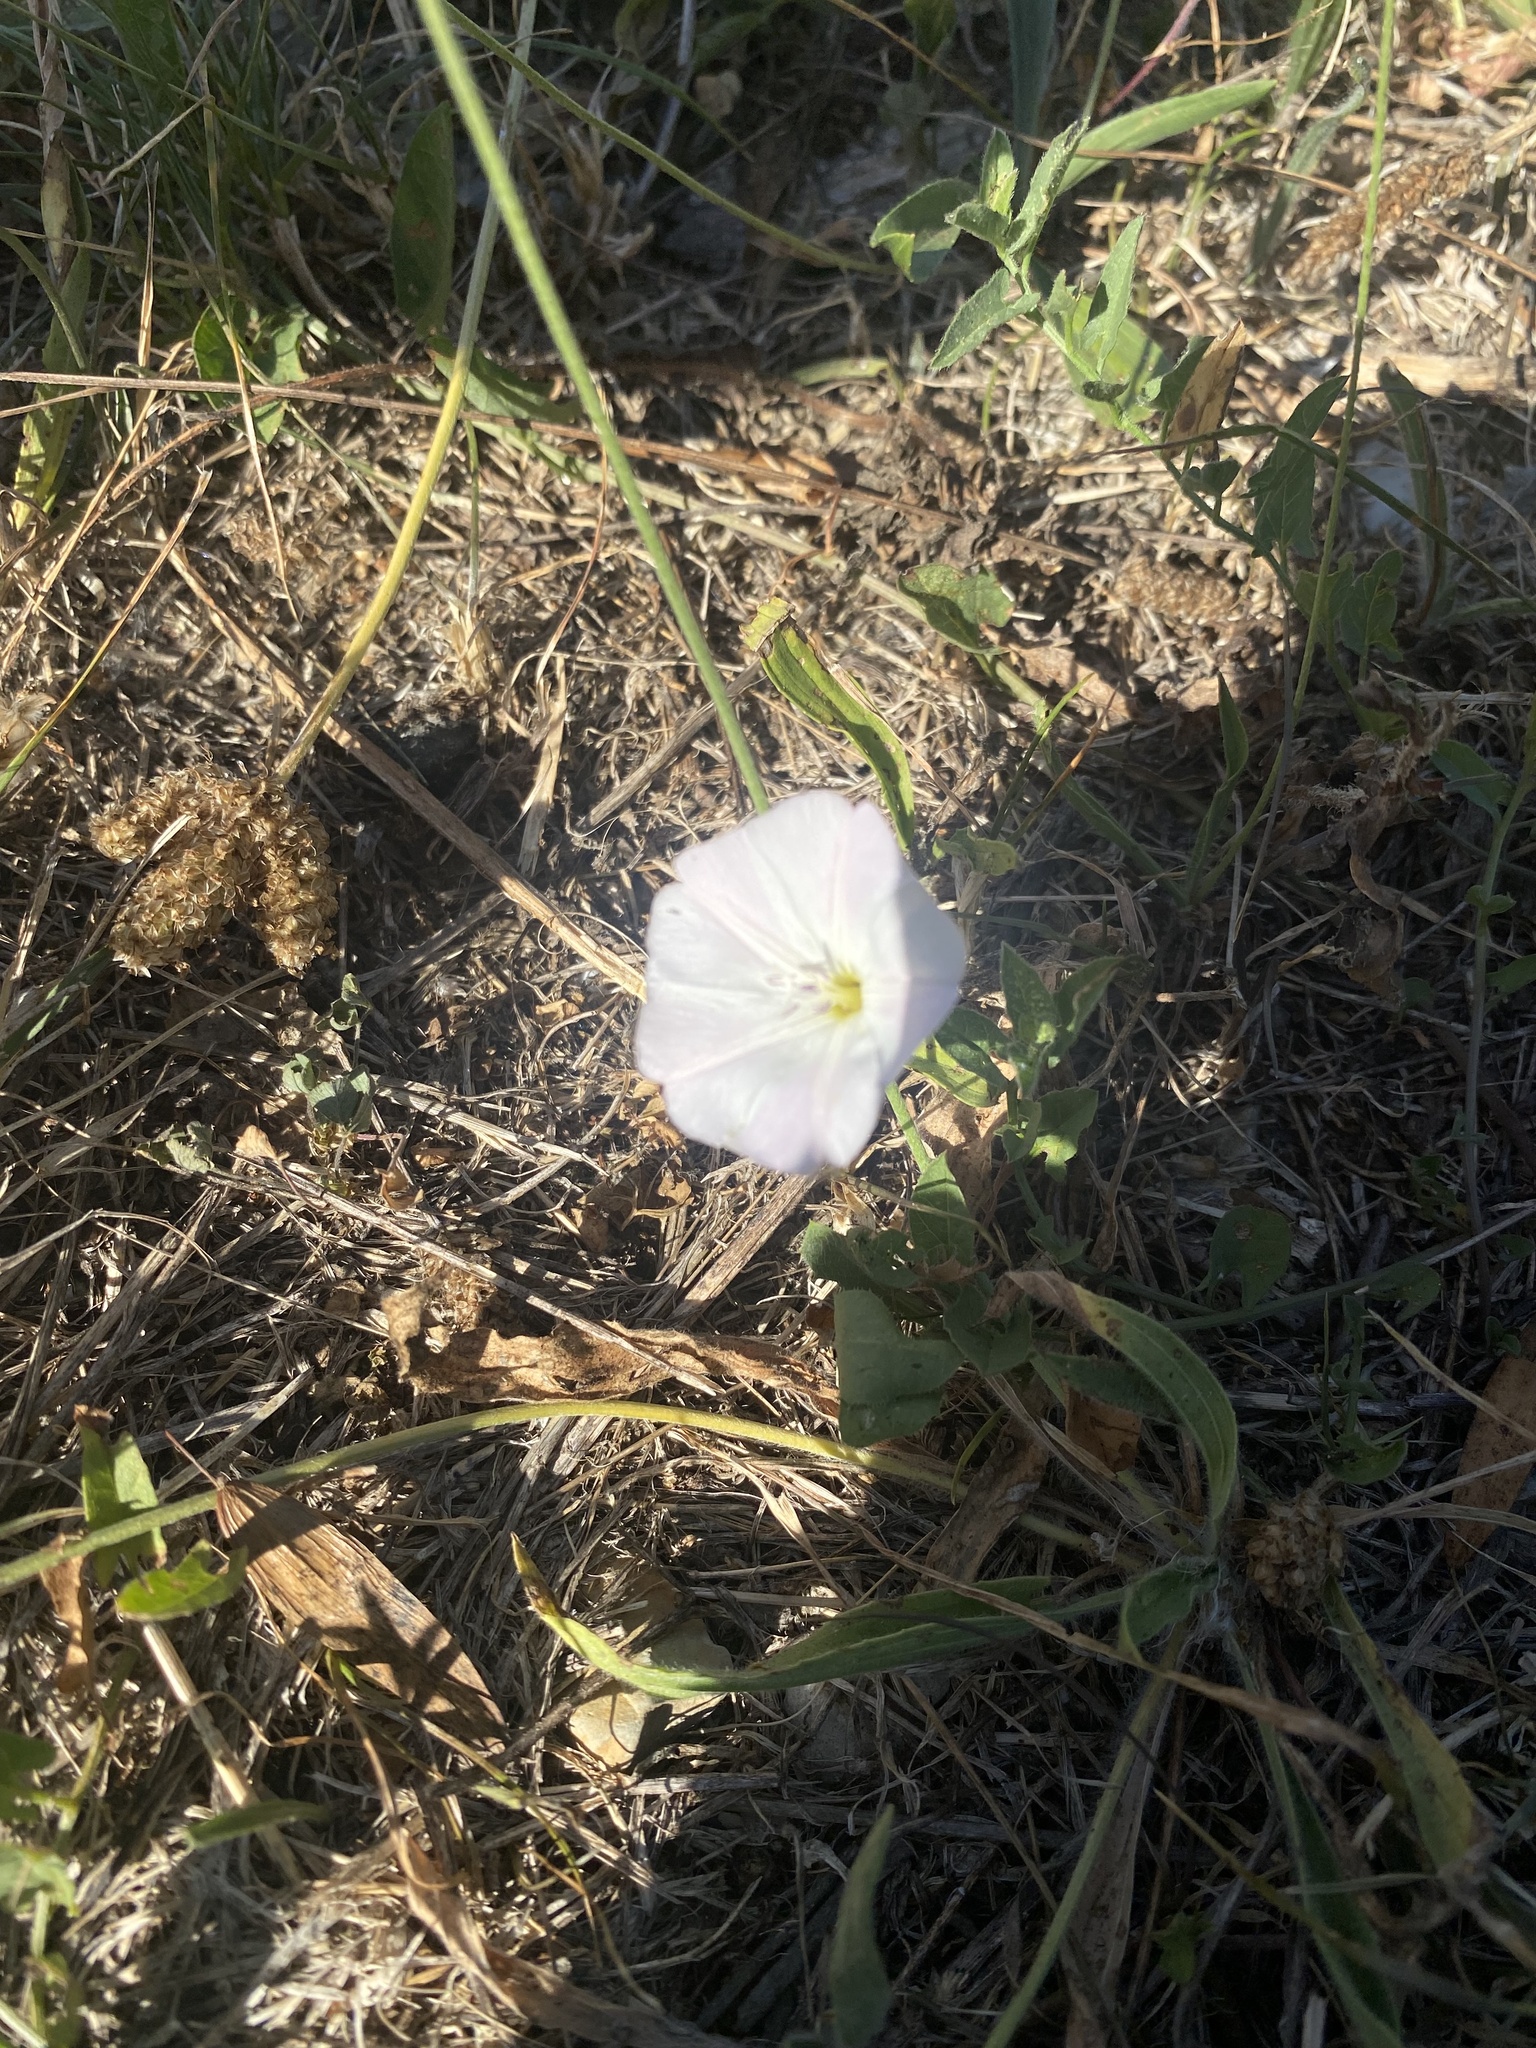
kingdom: Plantae
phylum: Tracheophyta
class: Magnoliopsida
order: Solanales
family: Convolvulaceae
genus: Convolvulus
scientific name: Convolvulus arvensis
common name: Field bindweed
